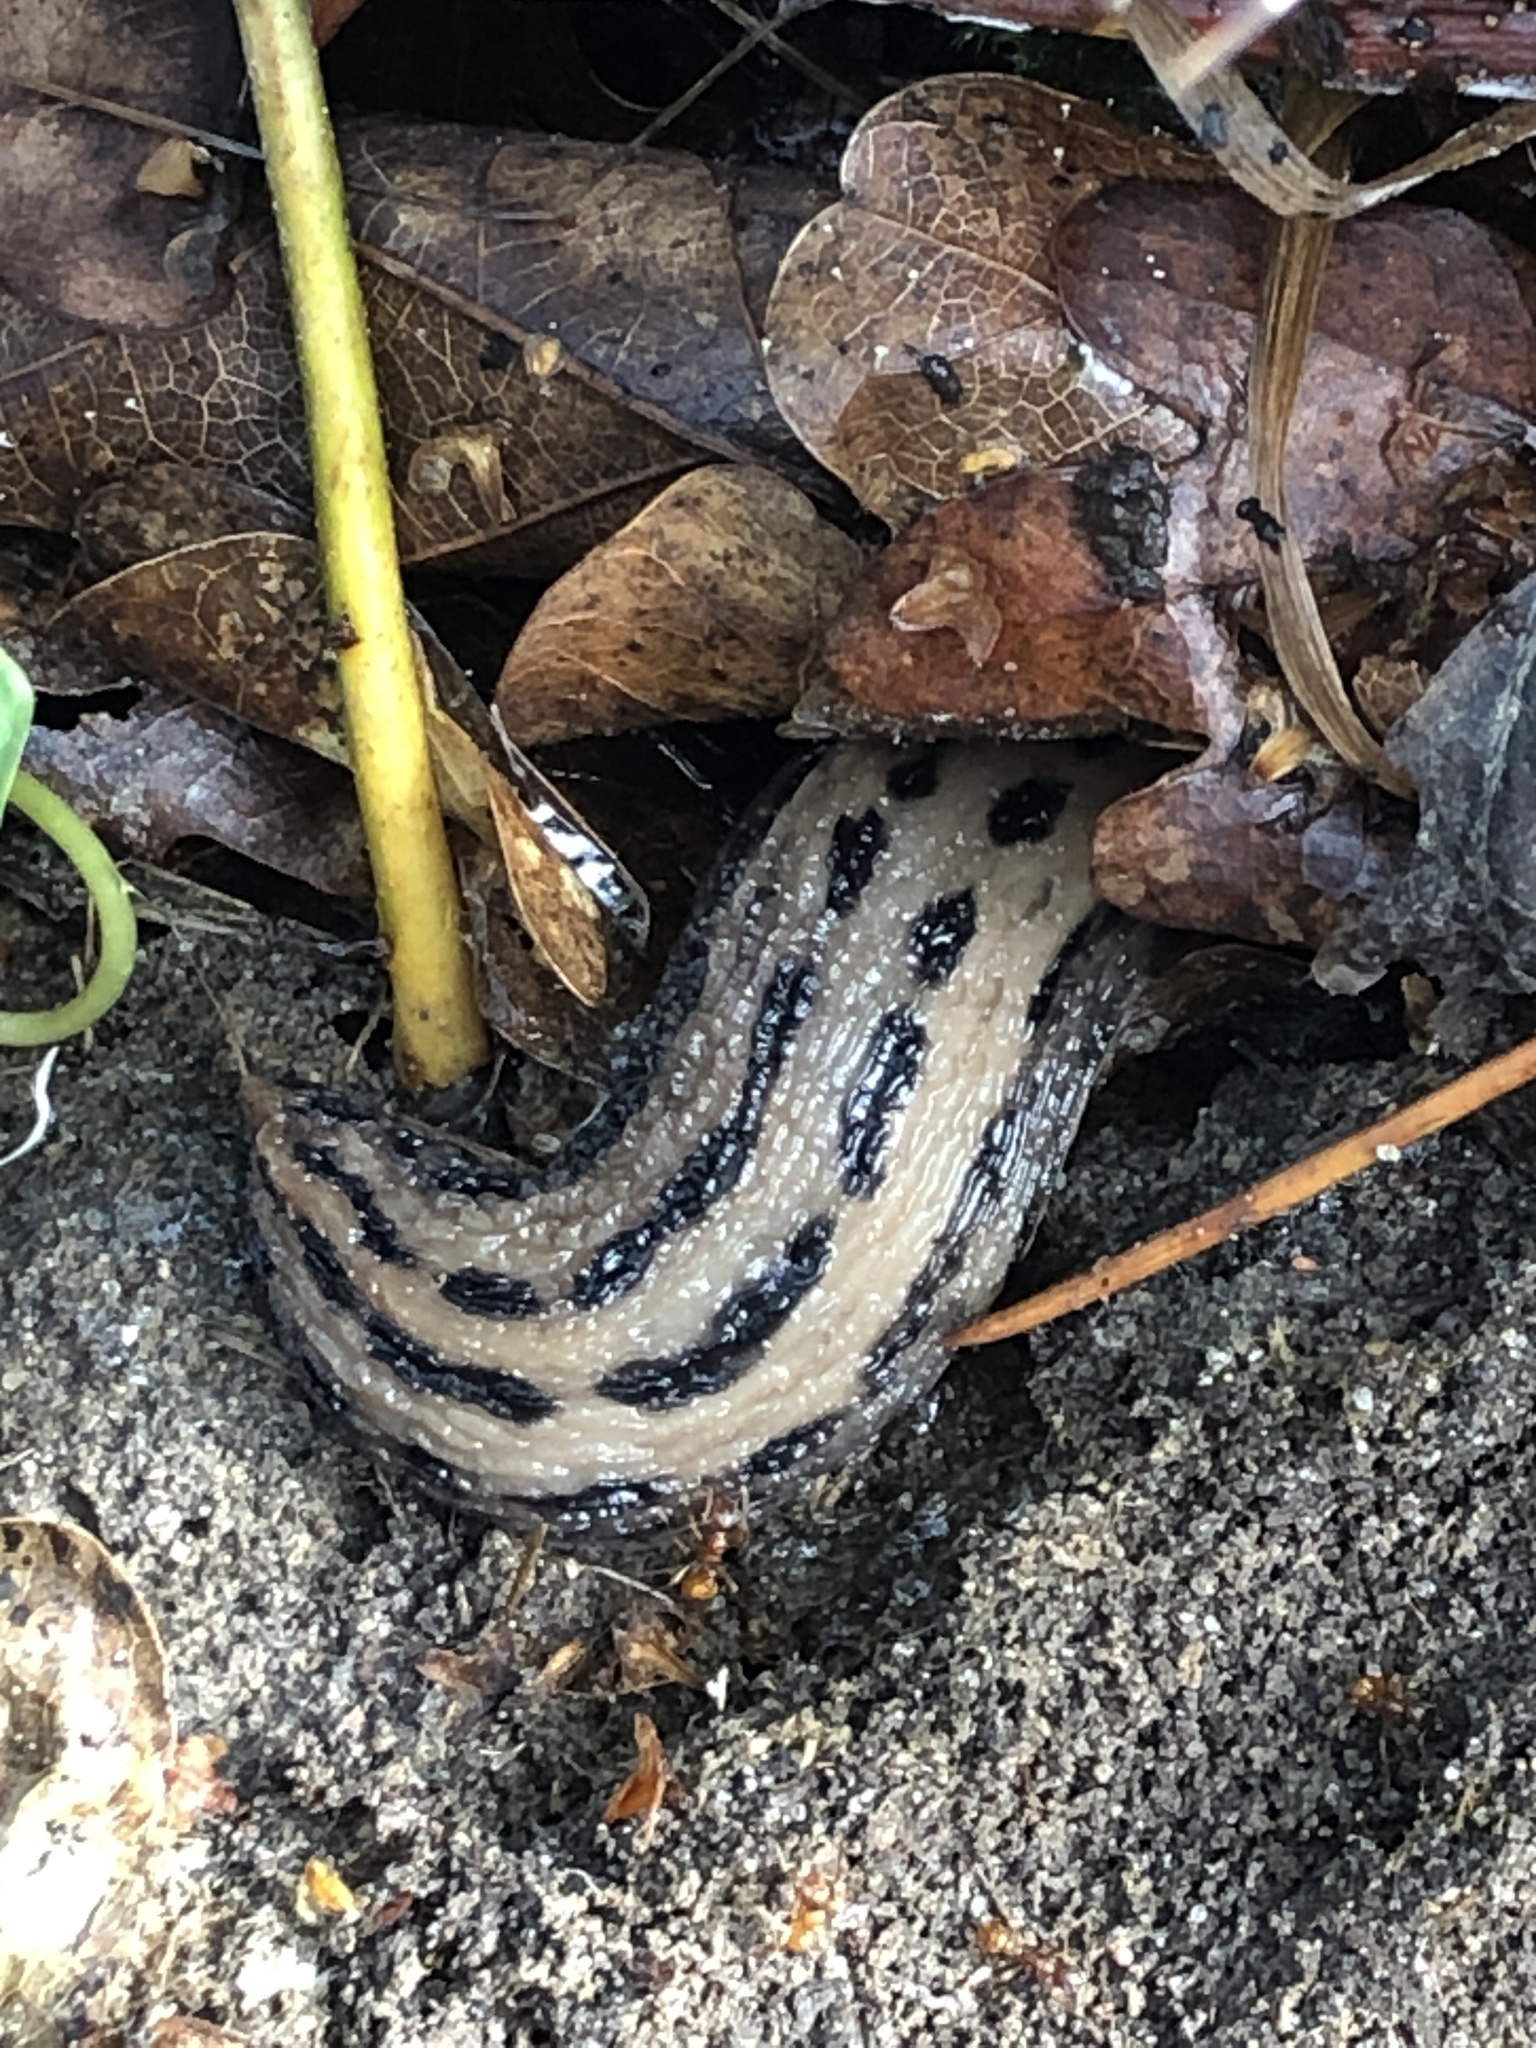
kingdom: Animalia
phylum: Mollusca
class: Gastropoda
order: Stylommatophora
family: Limacidae
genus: Limax
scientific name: Limax maximus
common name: Great grey slug
